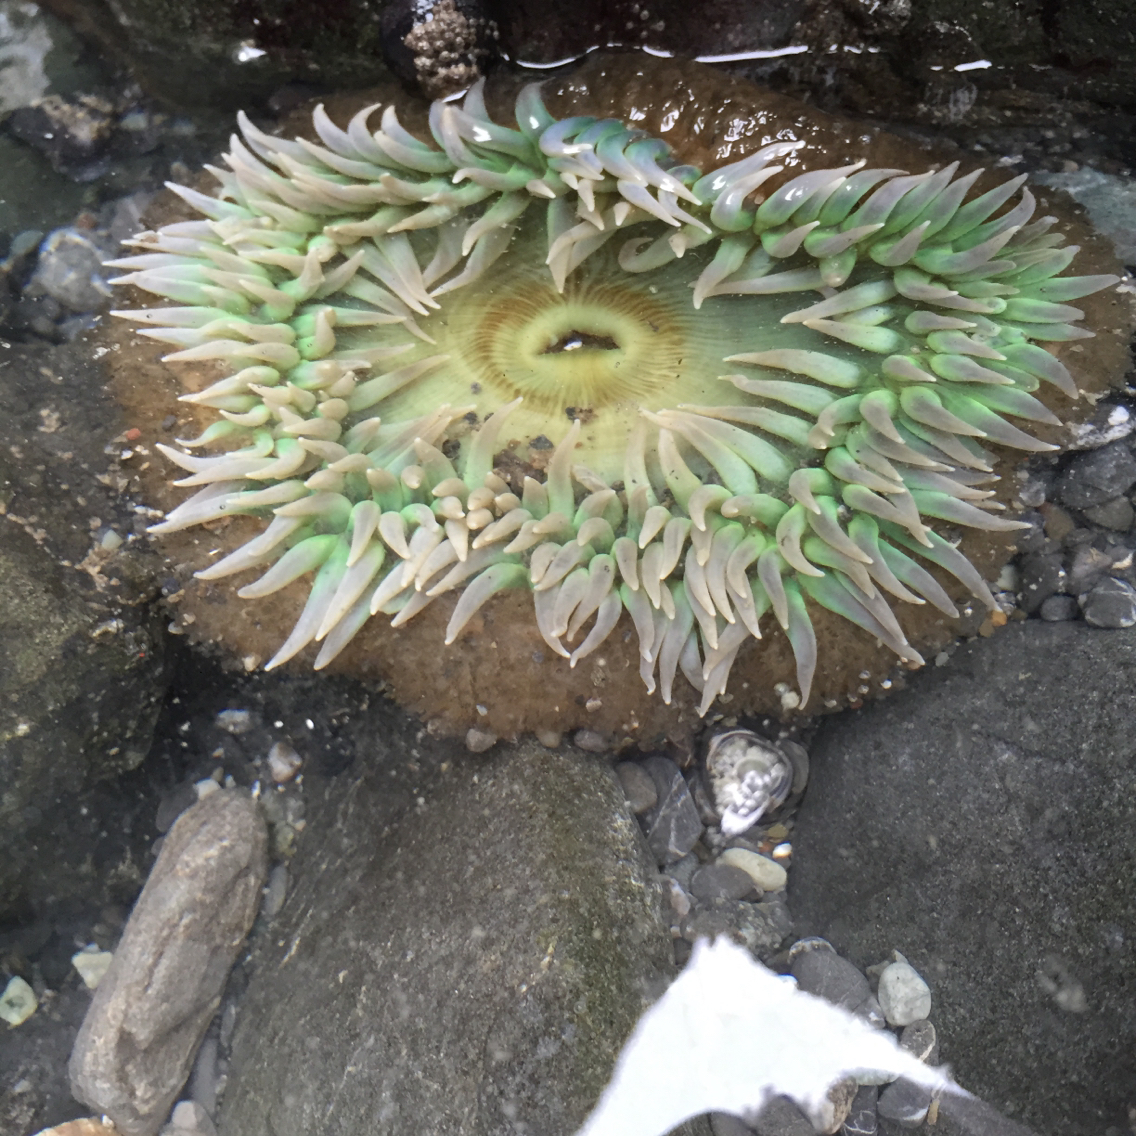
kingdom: Animalia
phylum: Cnidaria
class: Anthozoa
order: Actiniaria
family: Actiniidae
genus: Anthopleura
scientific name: Anthopleura xanthogrammica
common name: Giant green anemone
